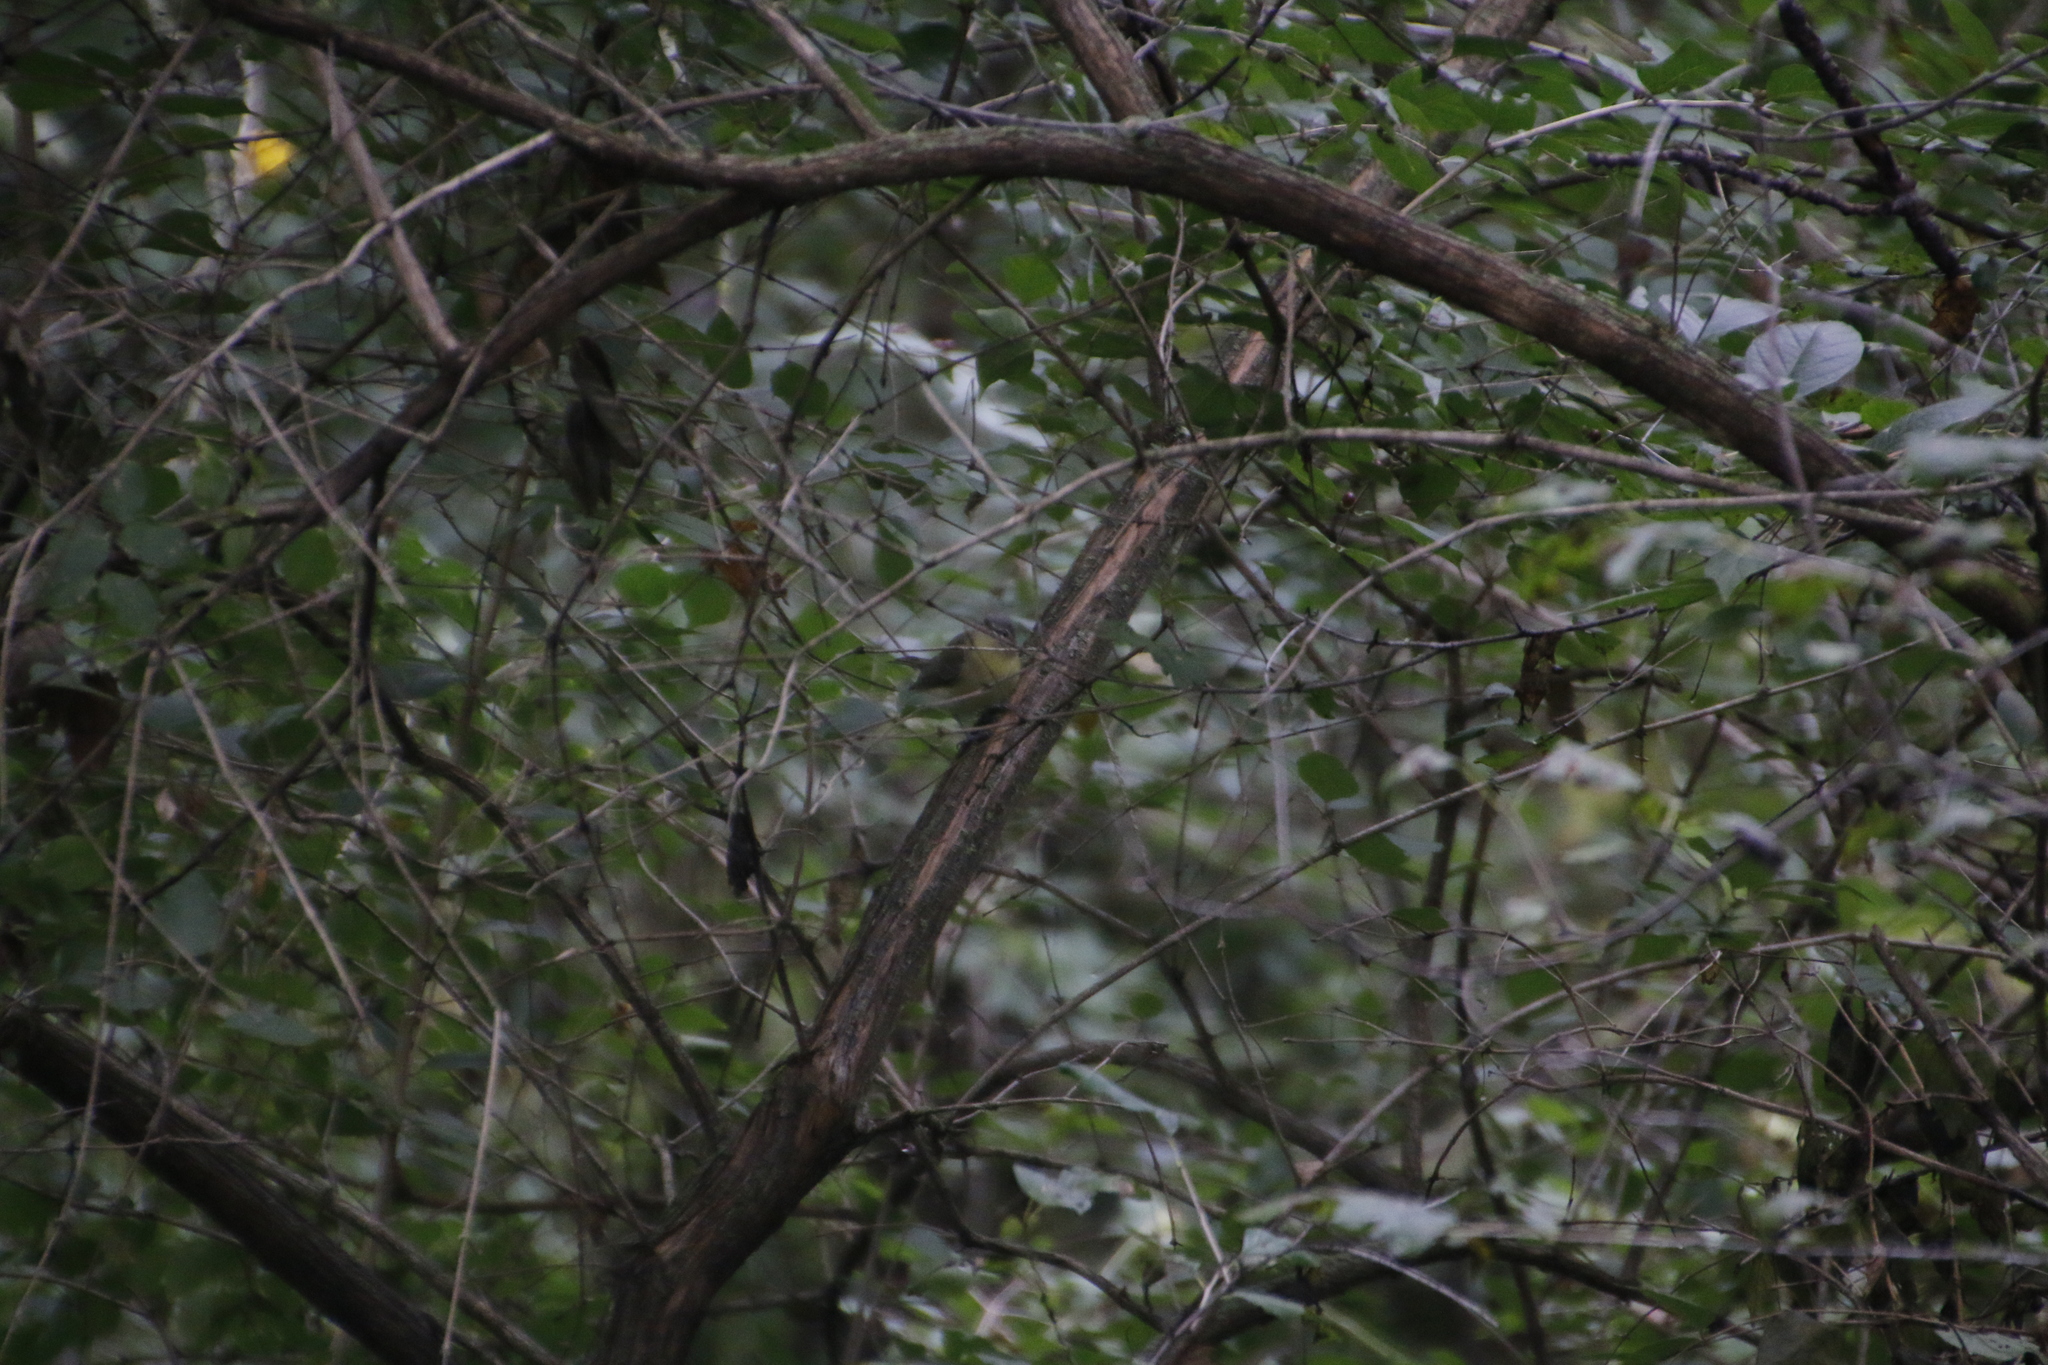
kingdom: Animalia
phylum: Chordata
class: Aves
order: Passeriformes
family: Vireonidae
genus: Vireo
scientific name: Vireo philadelphicus
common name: Philadelphia vireo
